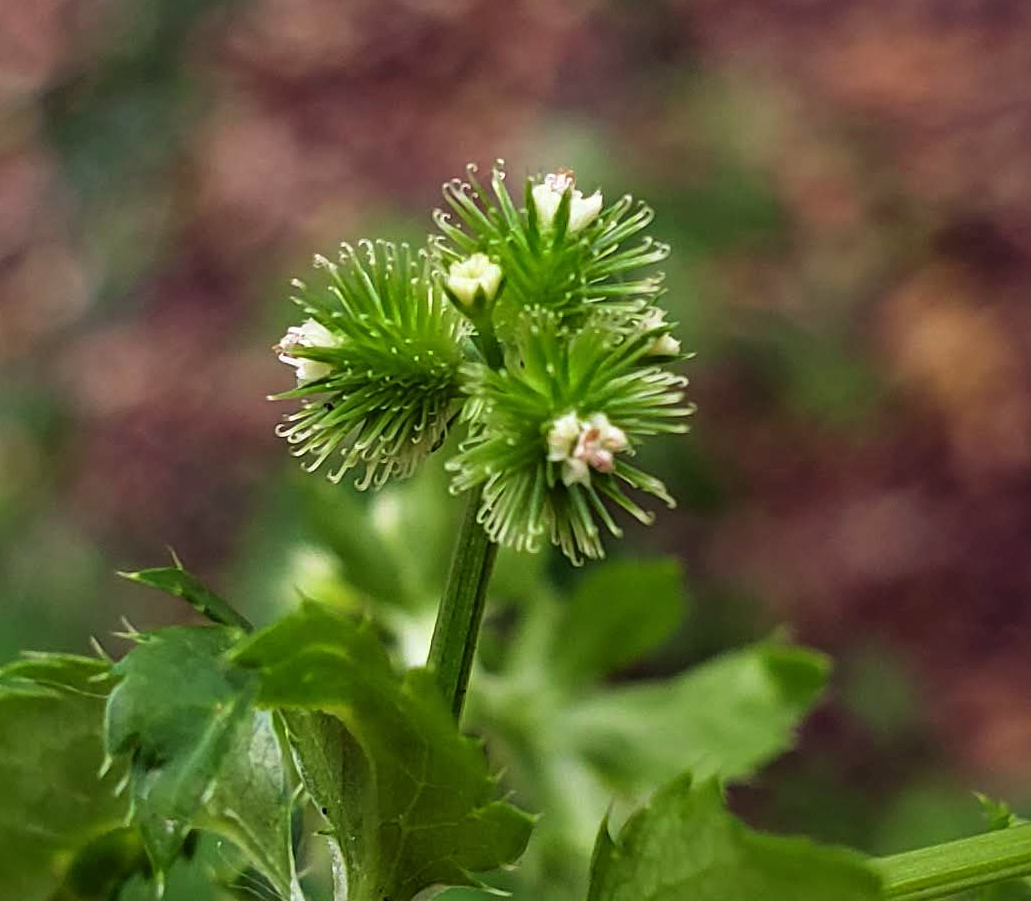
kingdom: Plantae
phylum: Tracheophyta
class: Magnoliopsida
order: Apiales
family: Apiaceae
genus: Sanicula
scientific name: Sanicula canadensis
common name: Canada sanicle
